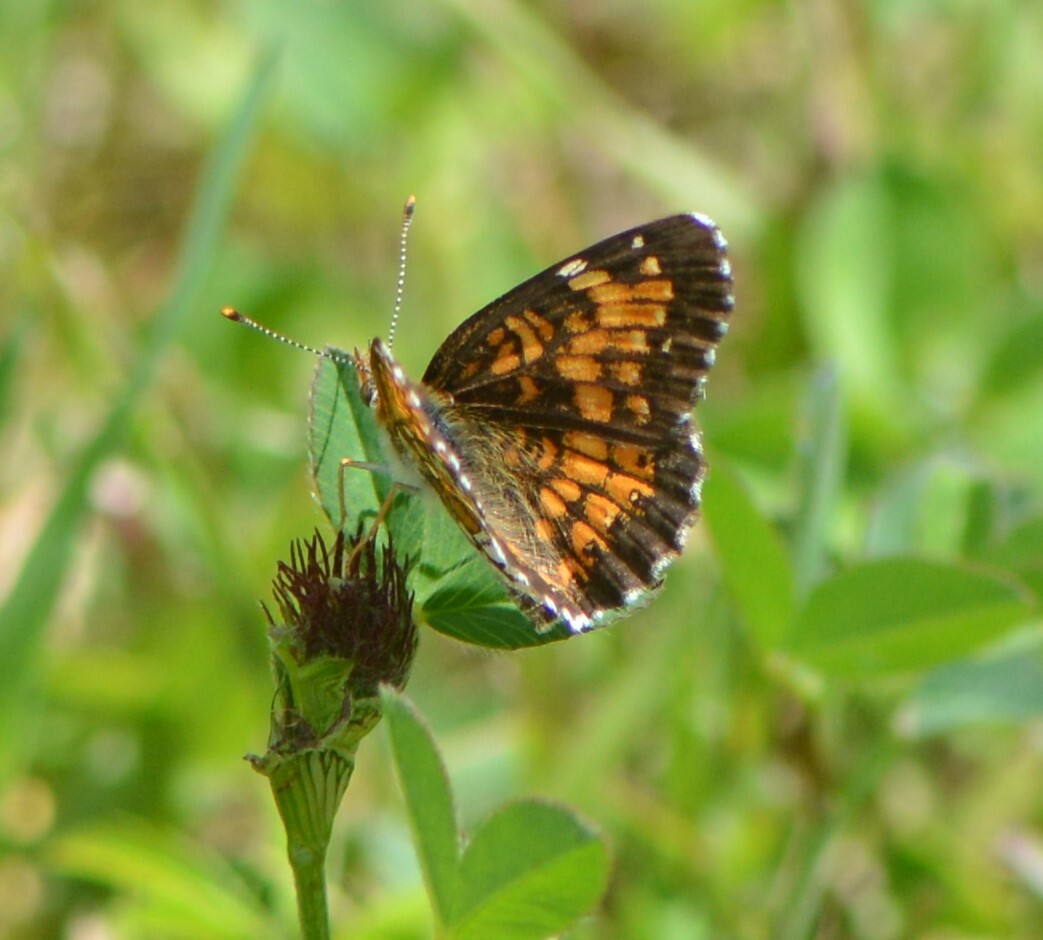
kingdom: Animalia
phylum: Arthropoda
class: Insecta
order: Lepidoptera
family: Nymphalidae
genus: Chlosyne
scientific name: Chlosyne harrisii
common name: Harris's checkerspot
